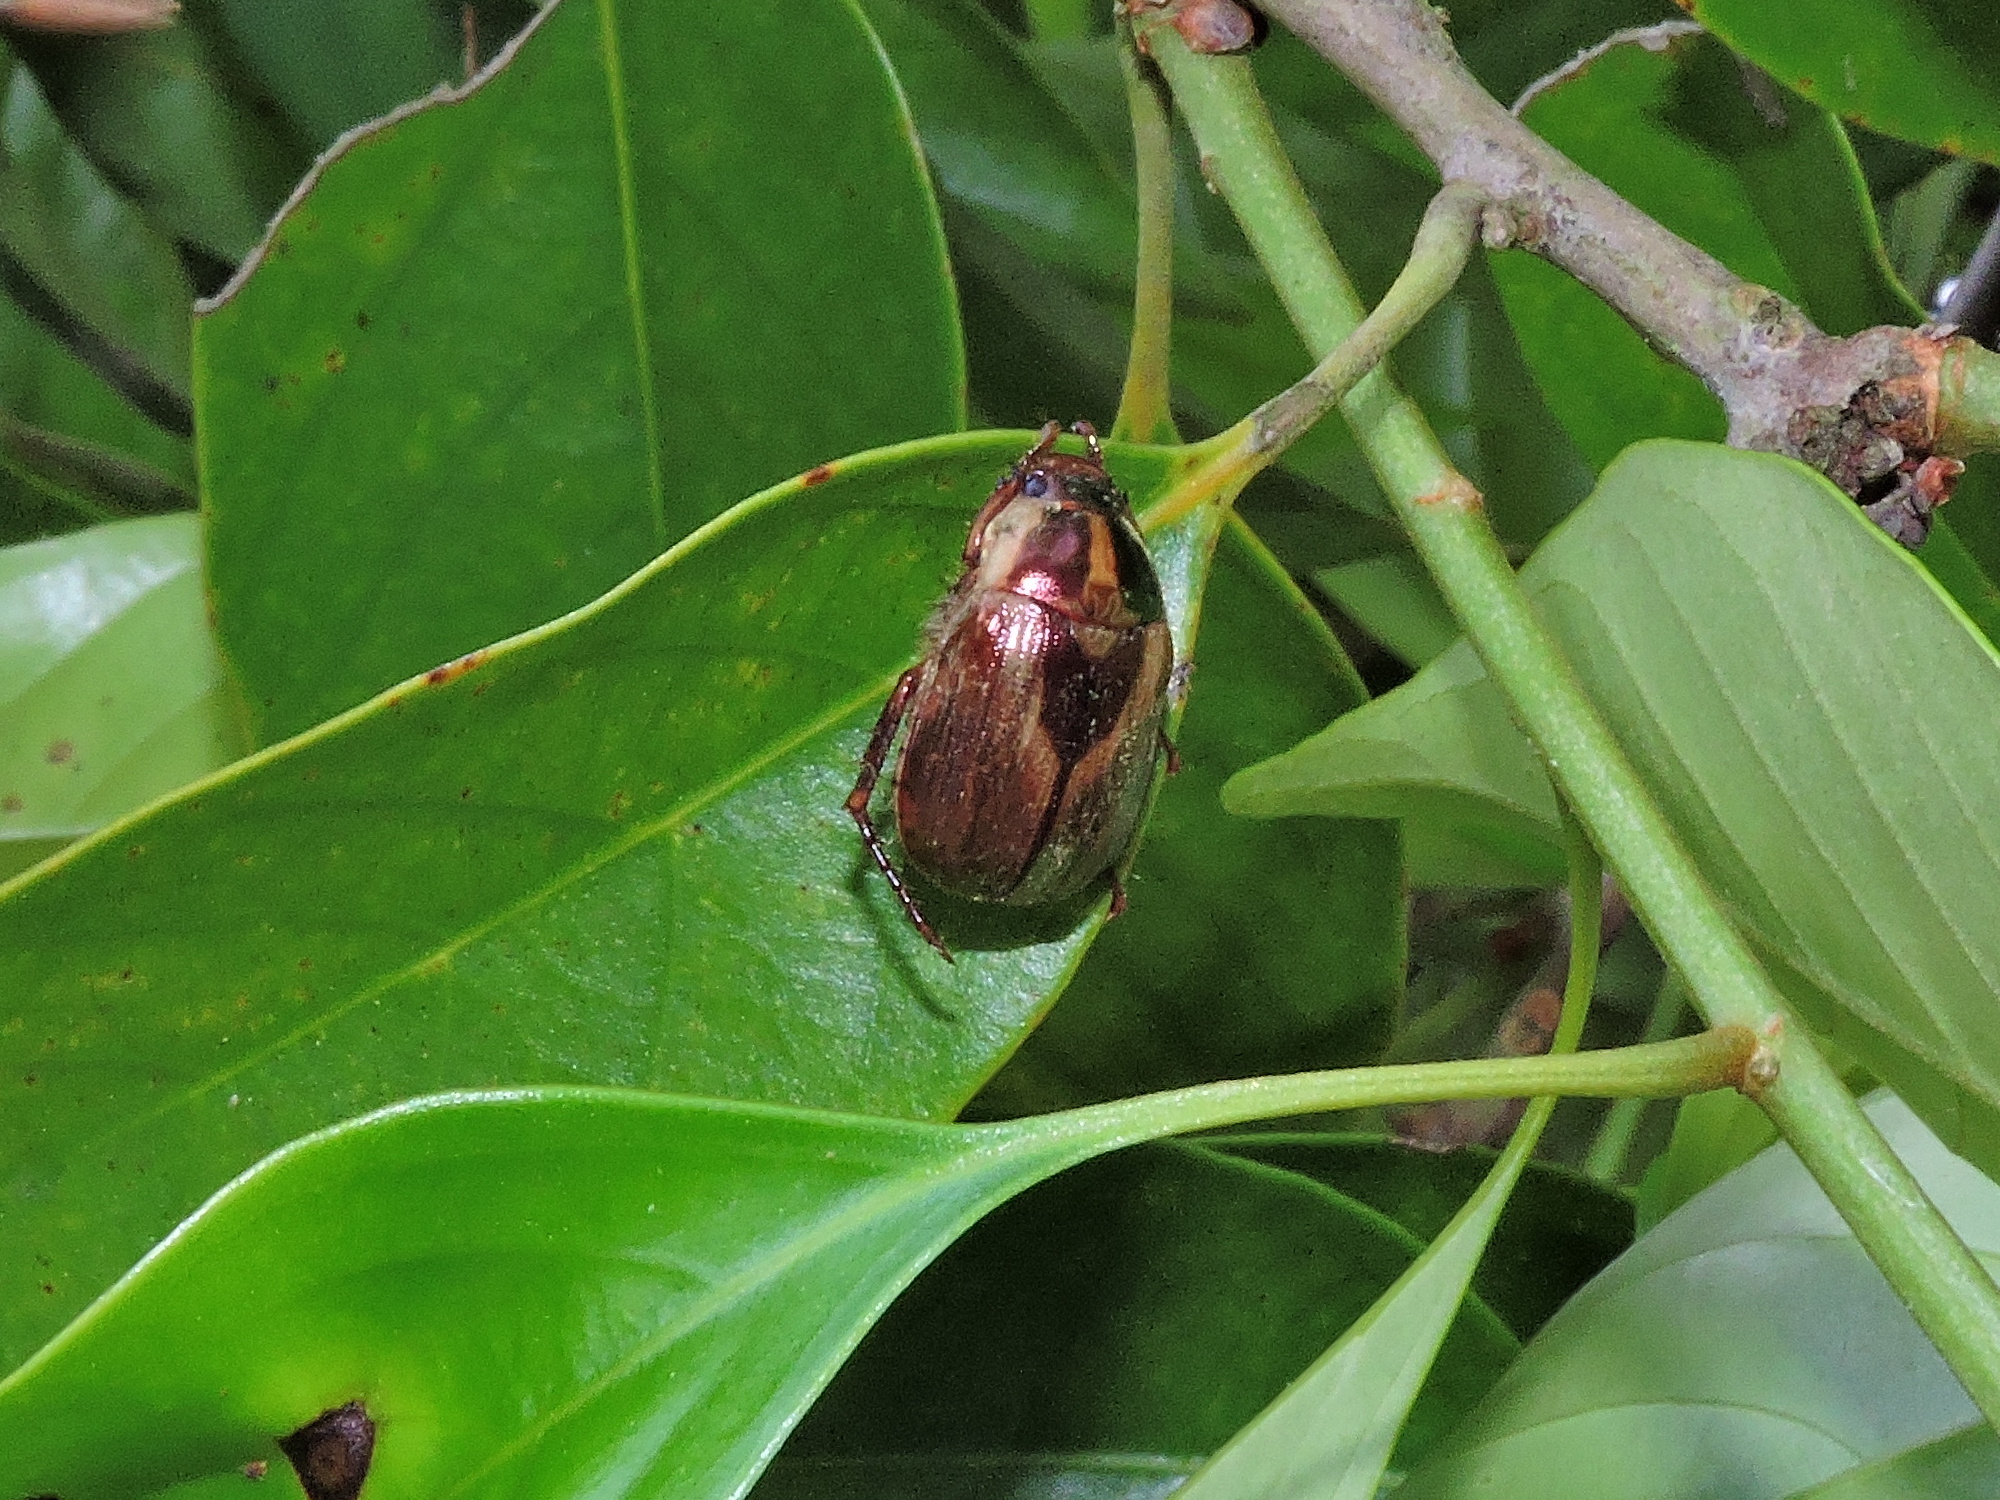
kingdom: Animalia
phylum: Arthropoda
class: Insecta
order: Coleoptera
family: Scarabaeidae
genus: Anomala
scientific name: Anomala babai
